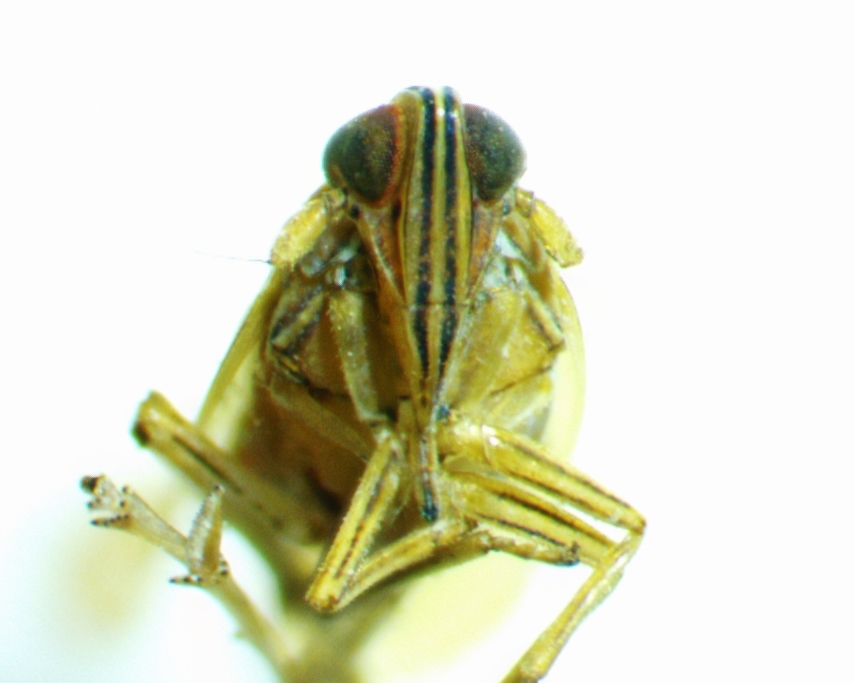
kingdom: Animalia
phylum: Arthropoda
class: Insecta
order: Hemiptera
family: Delphacidae
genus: Stenocranus
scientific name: Stenocranus dorsalis
